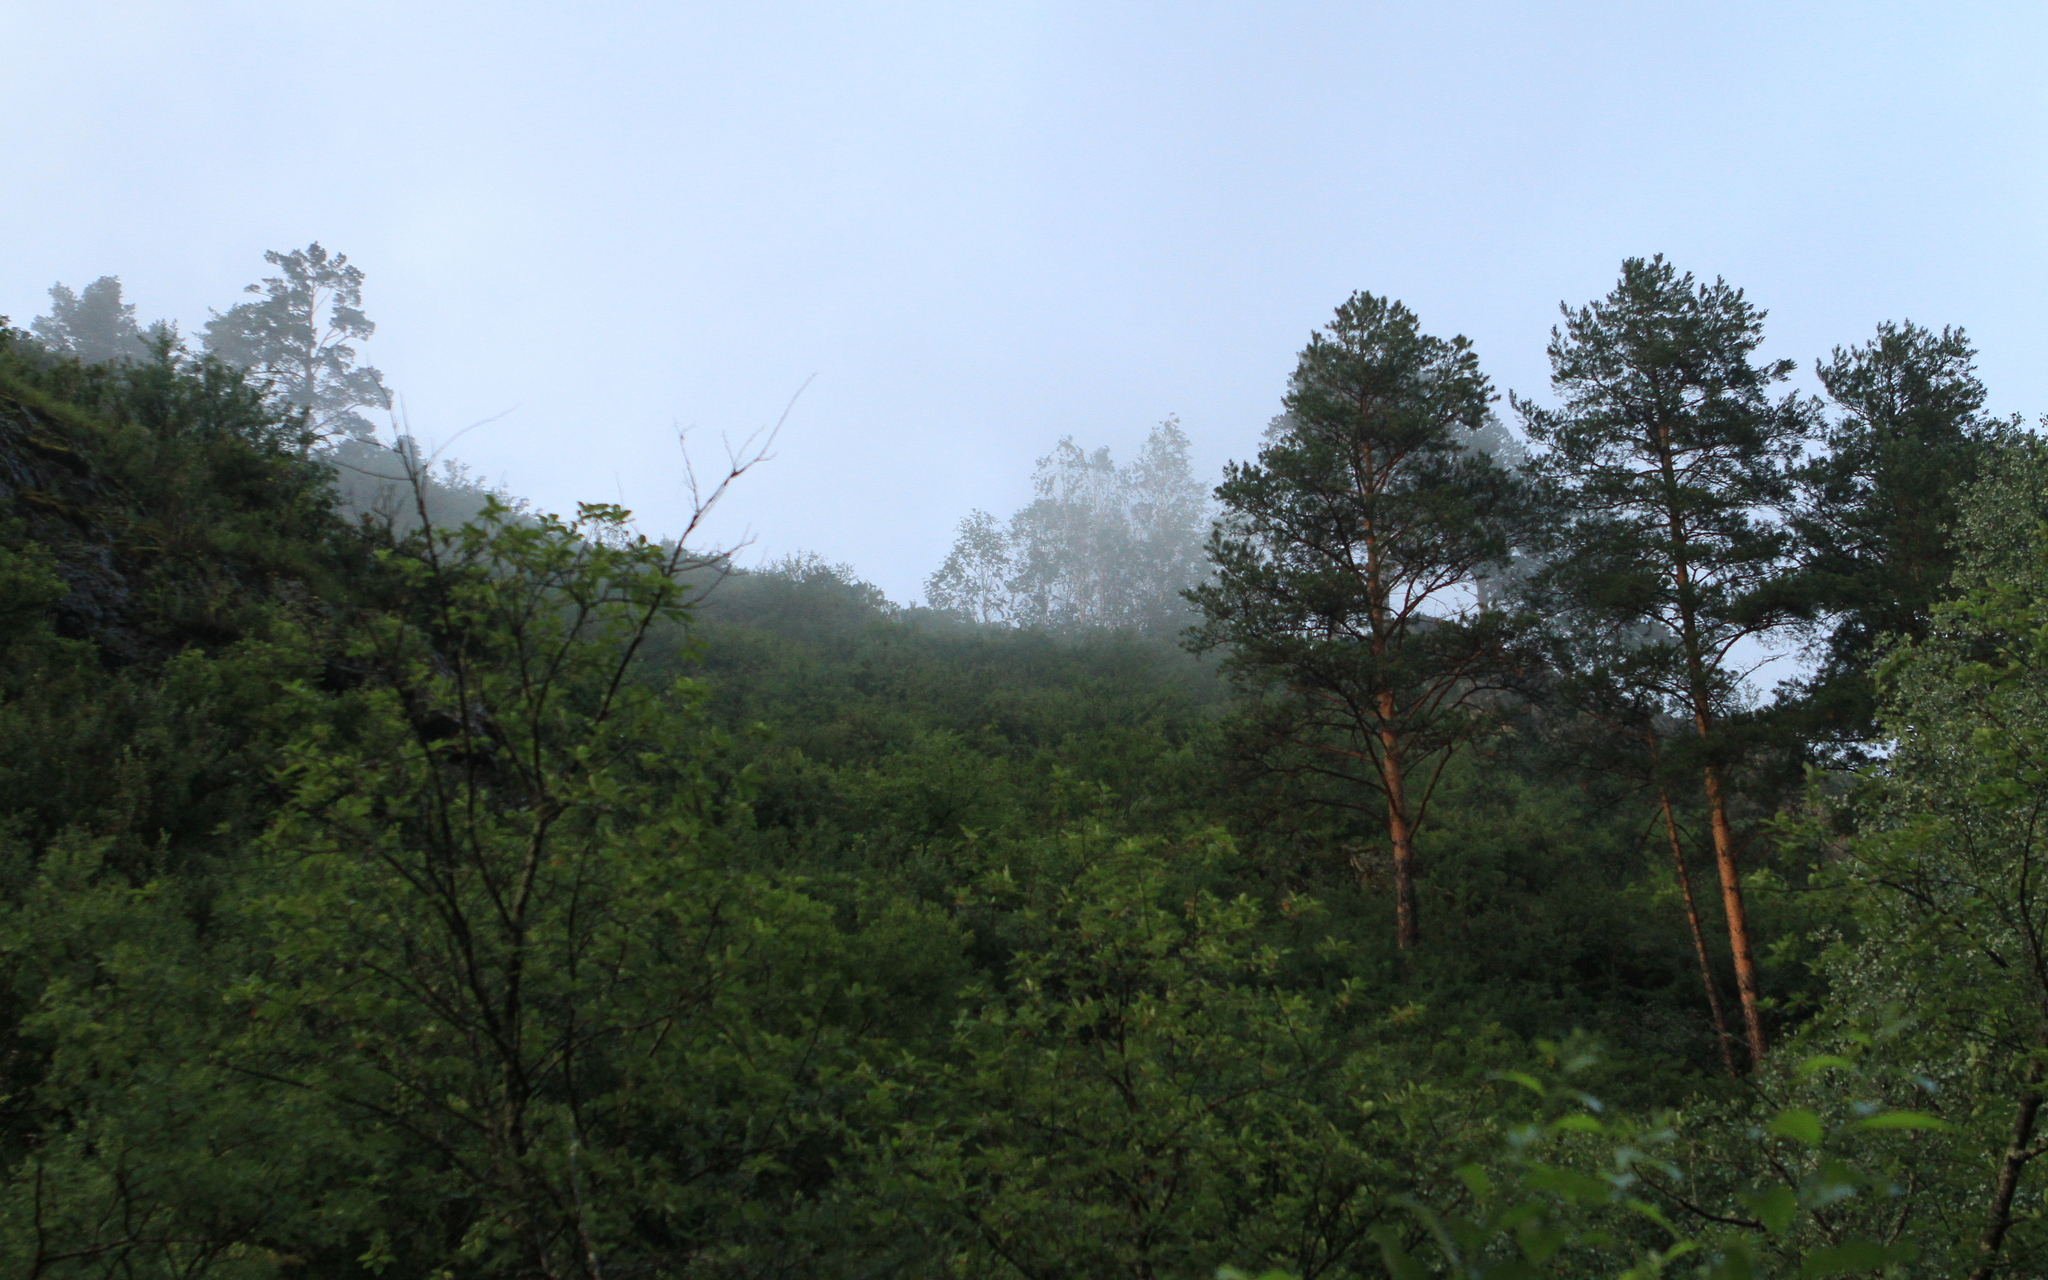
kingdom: Plantae
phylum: Tracheophyta
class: Pinopsida
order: Pinales
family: Pinaceae
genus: Pinus
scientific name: Pinus sylvestris
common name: Scots pine
